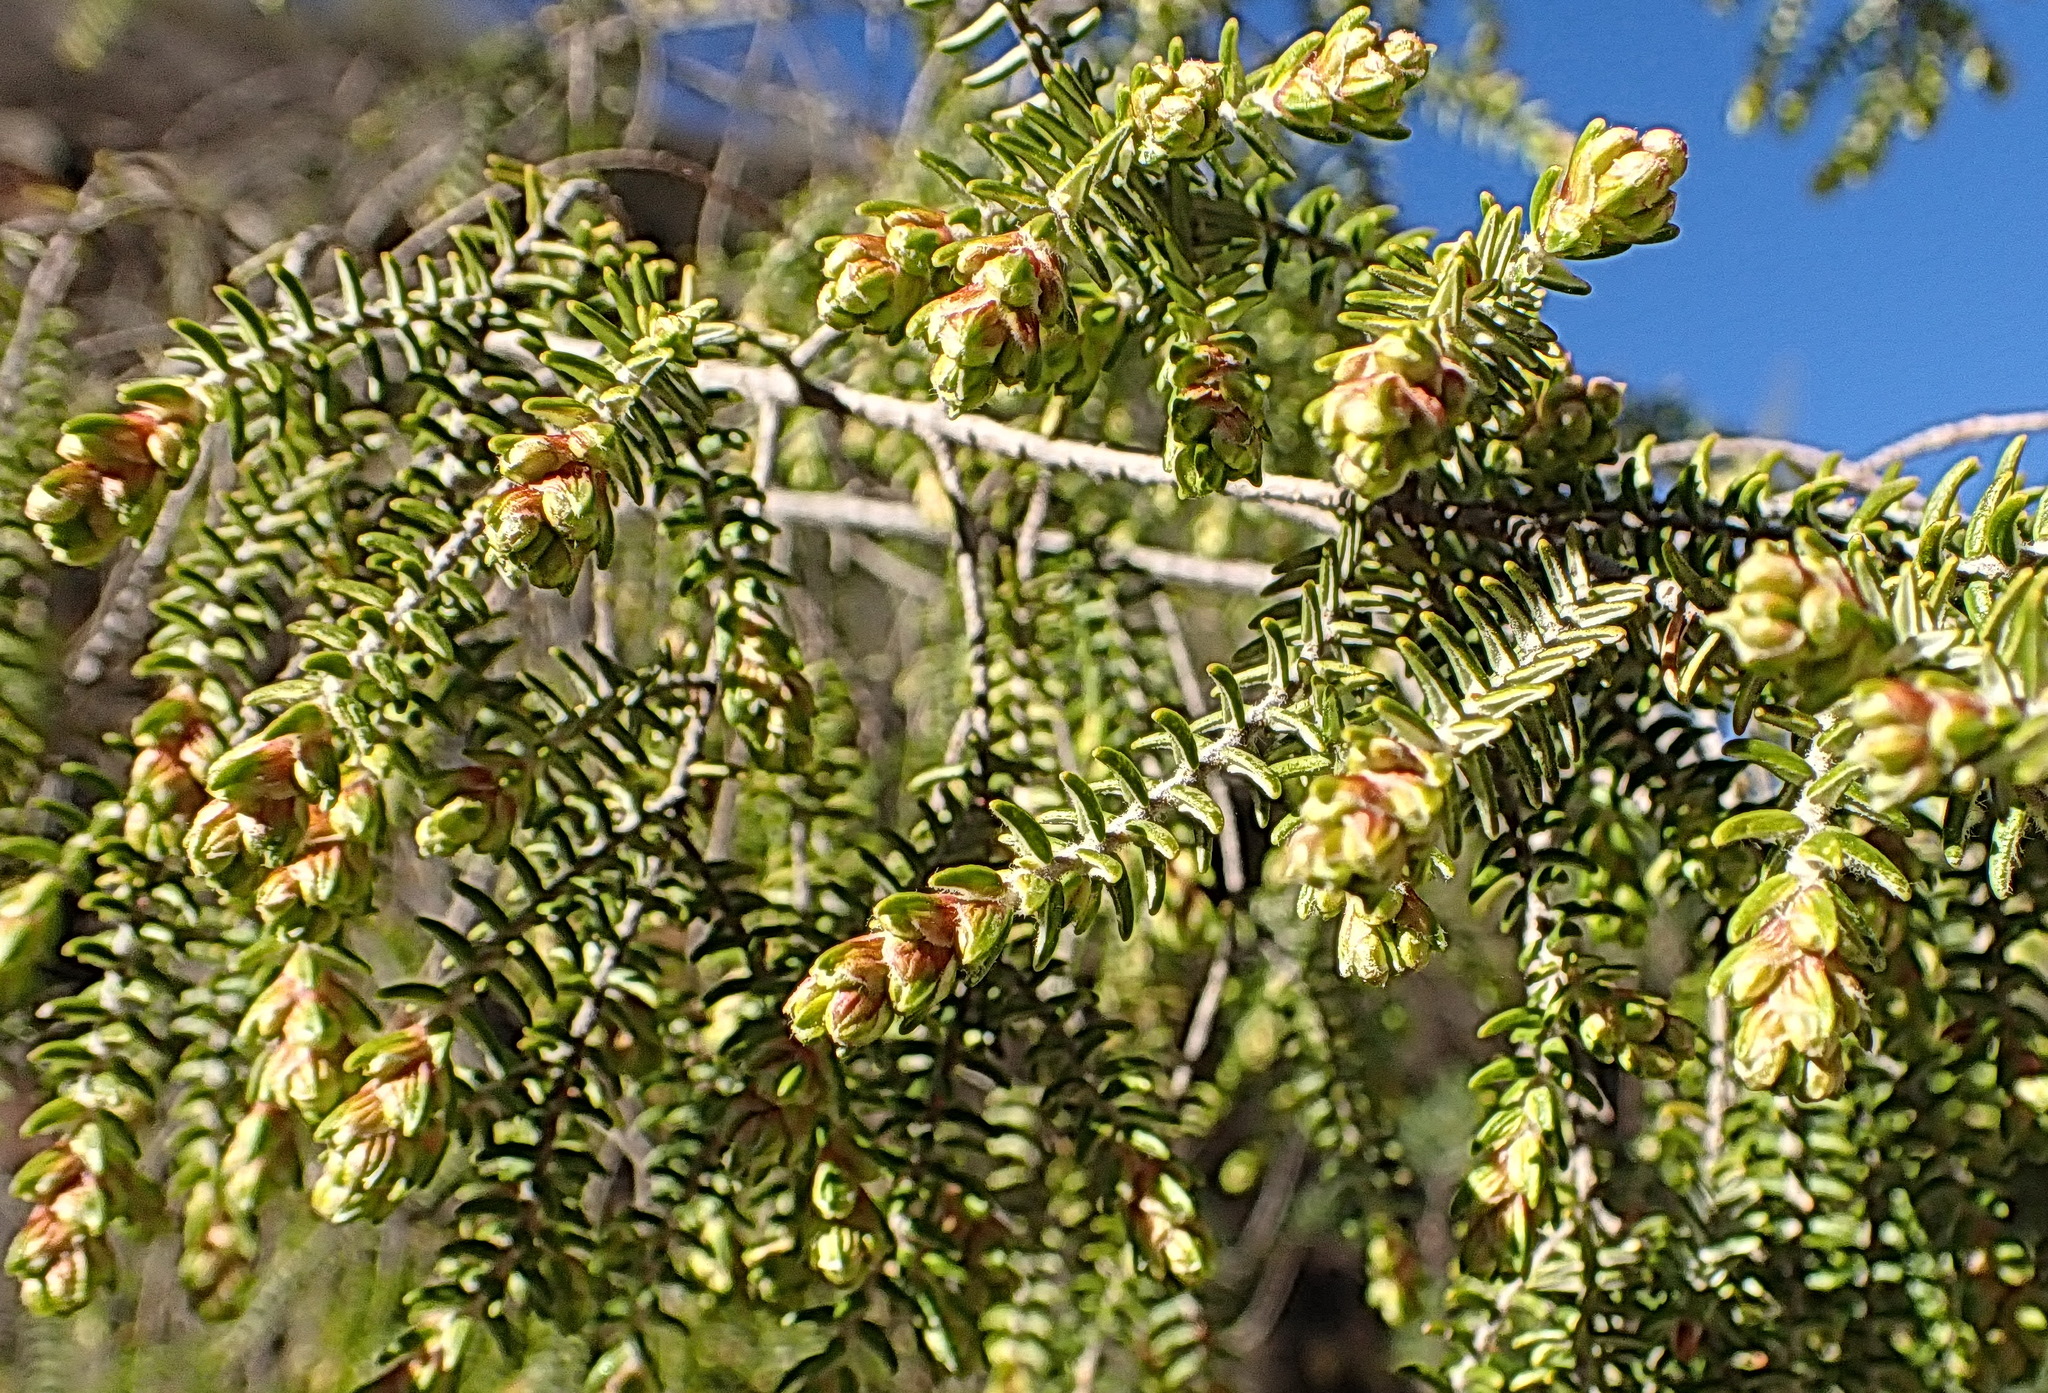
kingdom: Plantae
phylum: Tracheophyta
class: Magnoliopsida
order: Malvales
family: Thymelaeaceae
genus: Passerina
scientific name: Passerina falcifolia
